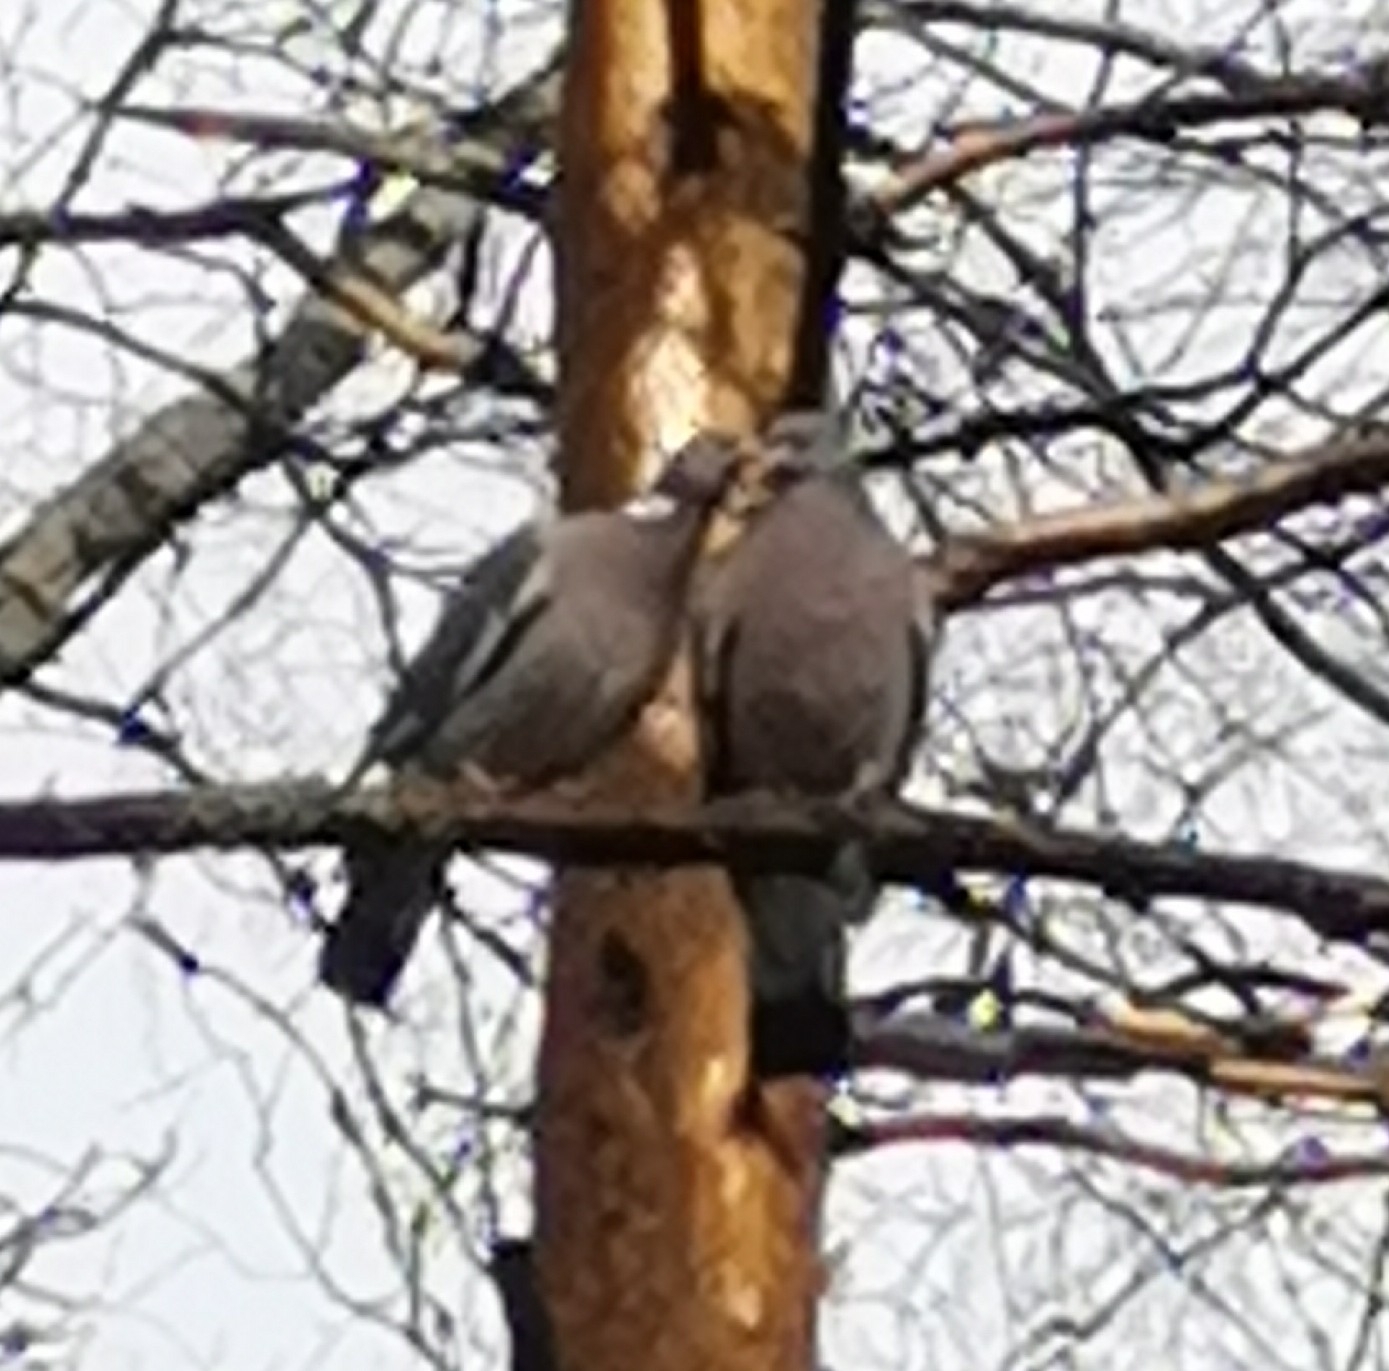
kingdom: Animalia
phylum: Chordata
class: Aves
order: Columbiformes
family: Columbidae
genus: Columba
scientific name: Columba palumbus
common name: Common wood pigeon
